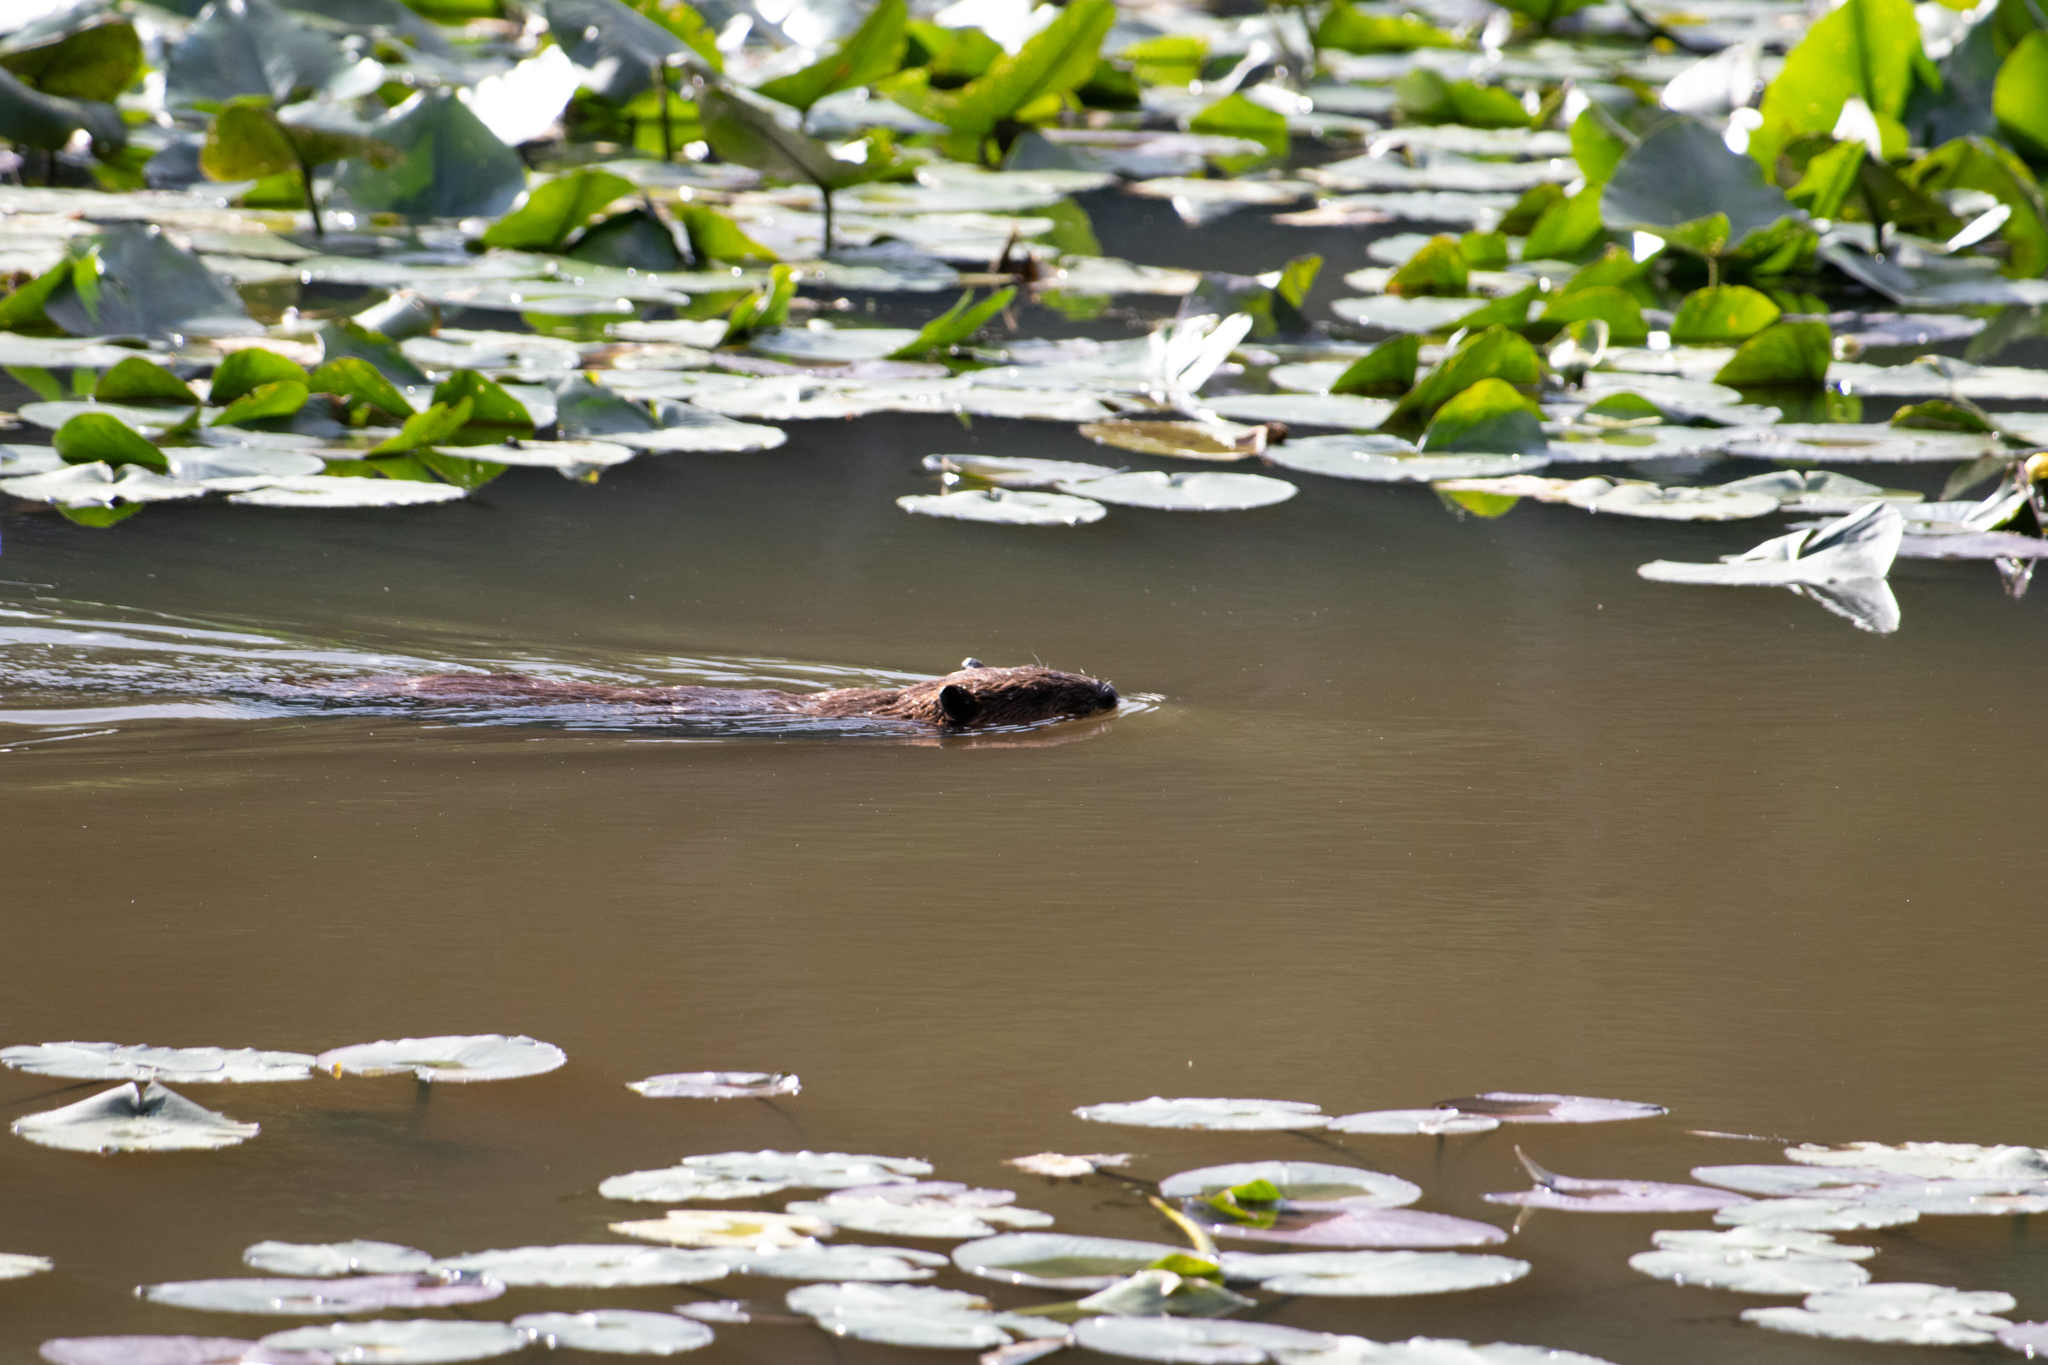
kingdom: Animalia
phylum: Chordata
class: Mammalia
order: Rodentia
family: Castoridae
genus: Castor
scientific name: Castor canadensis
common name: American beaver
